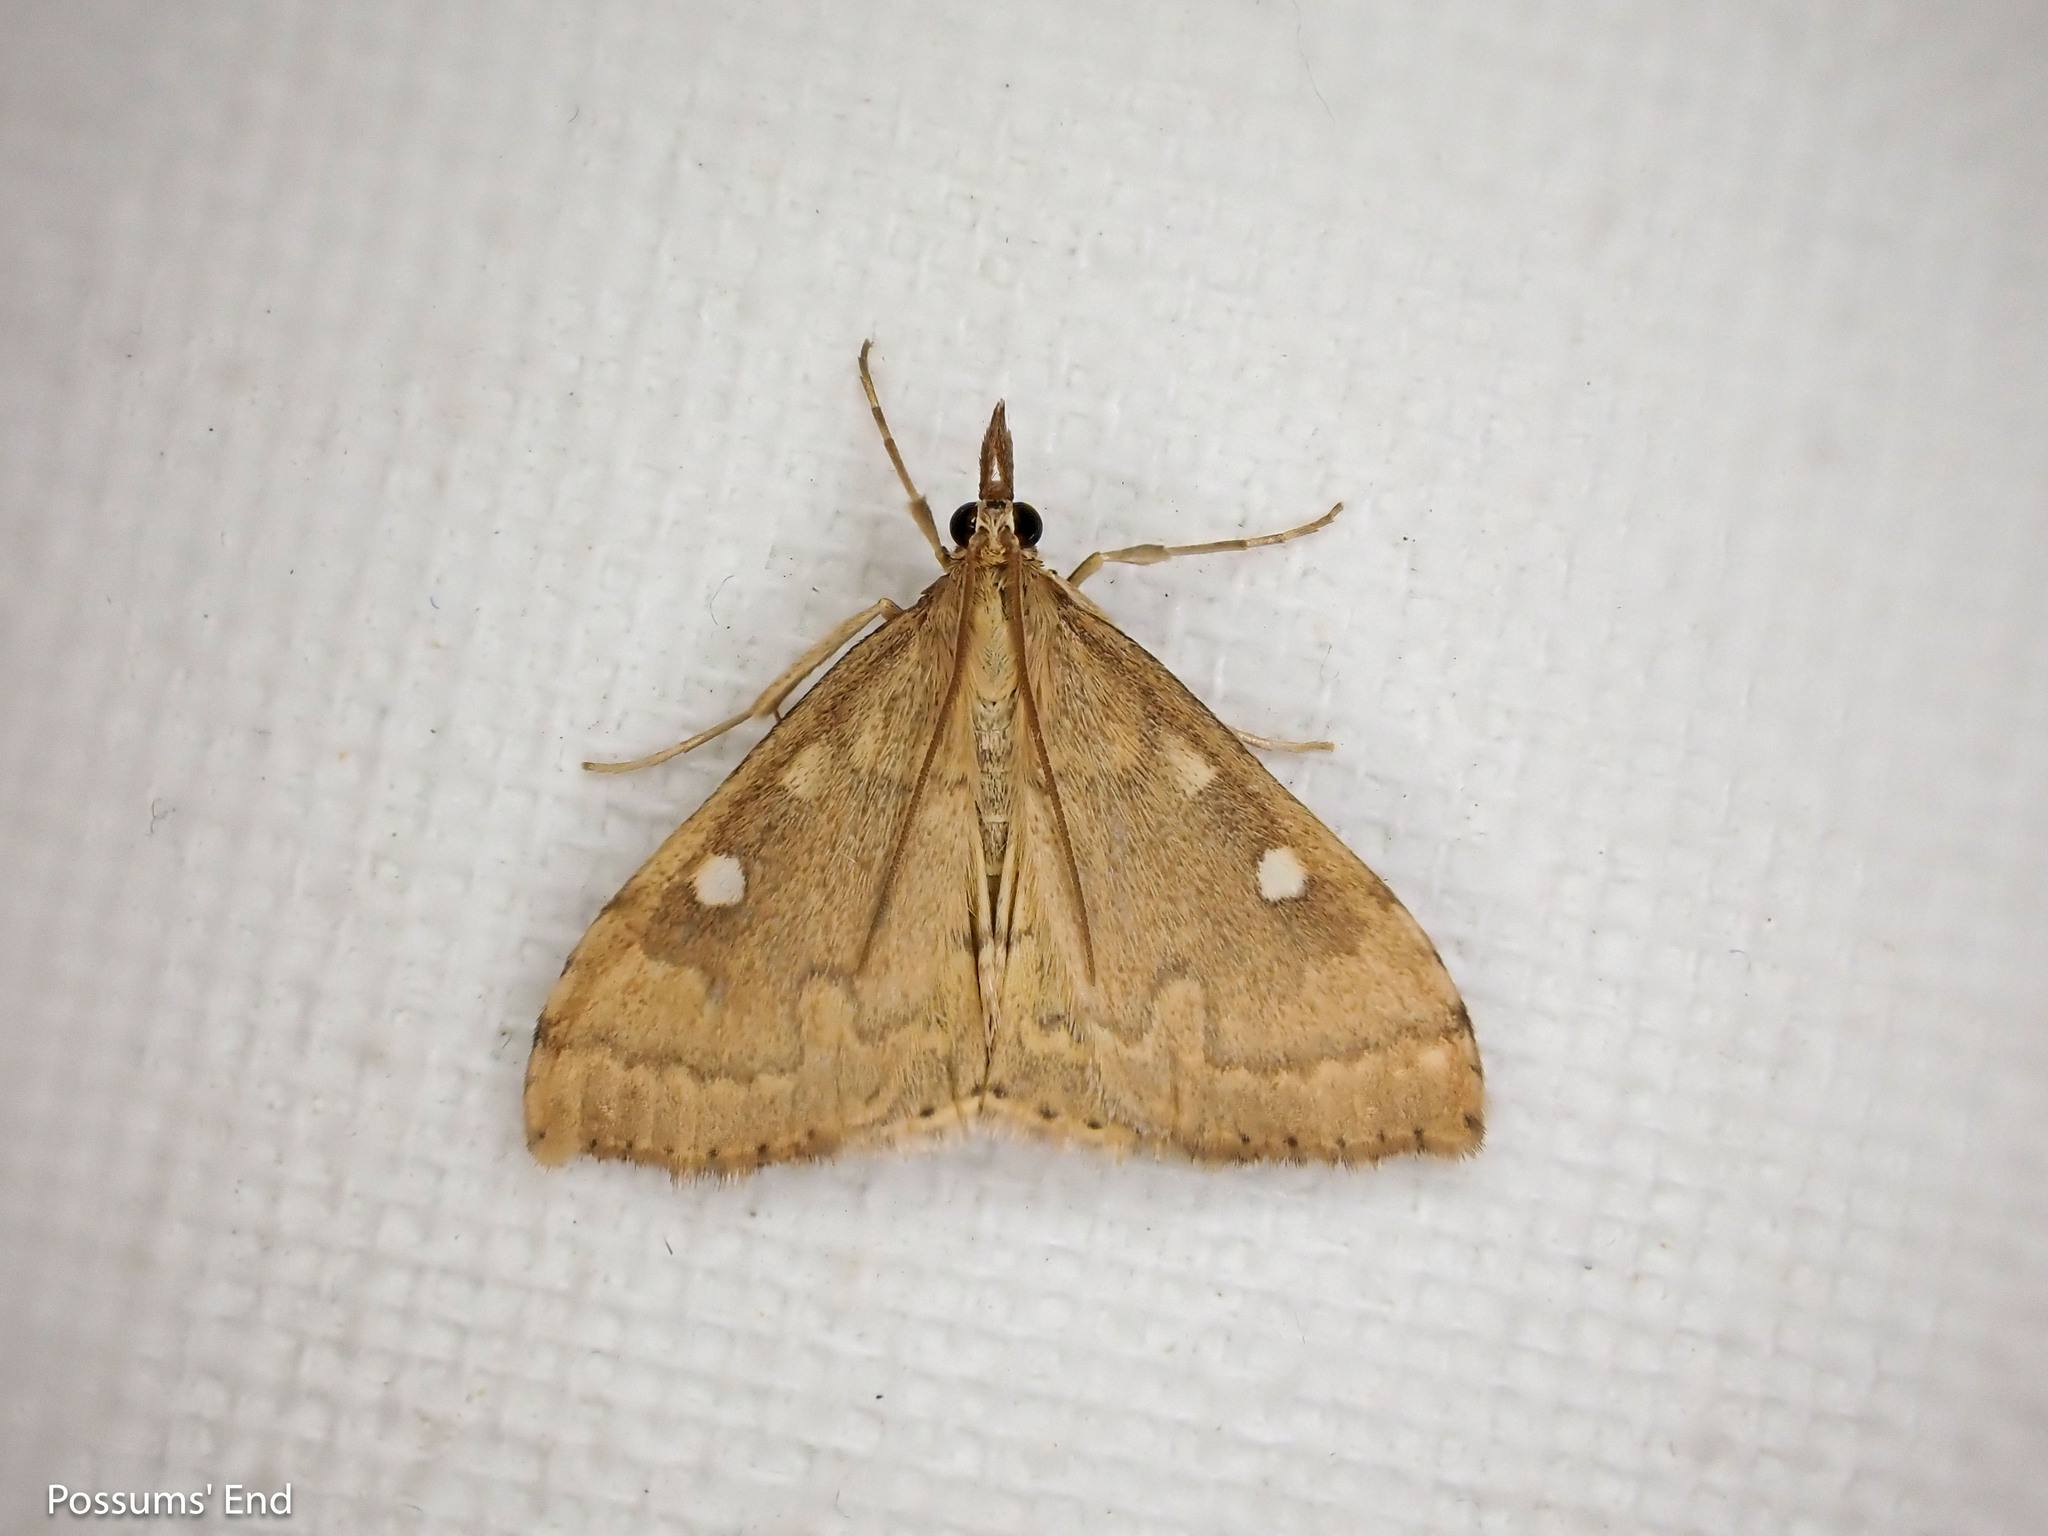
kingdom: Animalia
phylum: Arthropoda
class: Insecta
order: Lepidoptera
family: Crambidae
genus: Udea
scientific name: Udea Mnesictena marmarina
